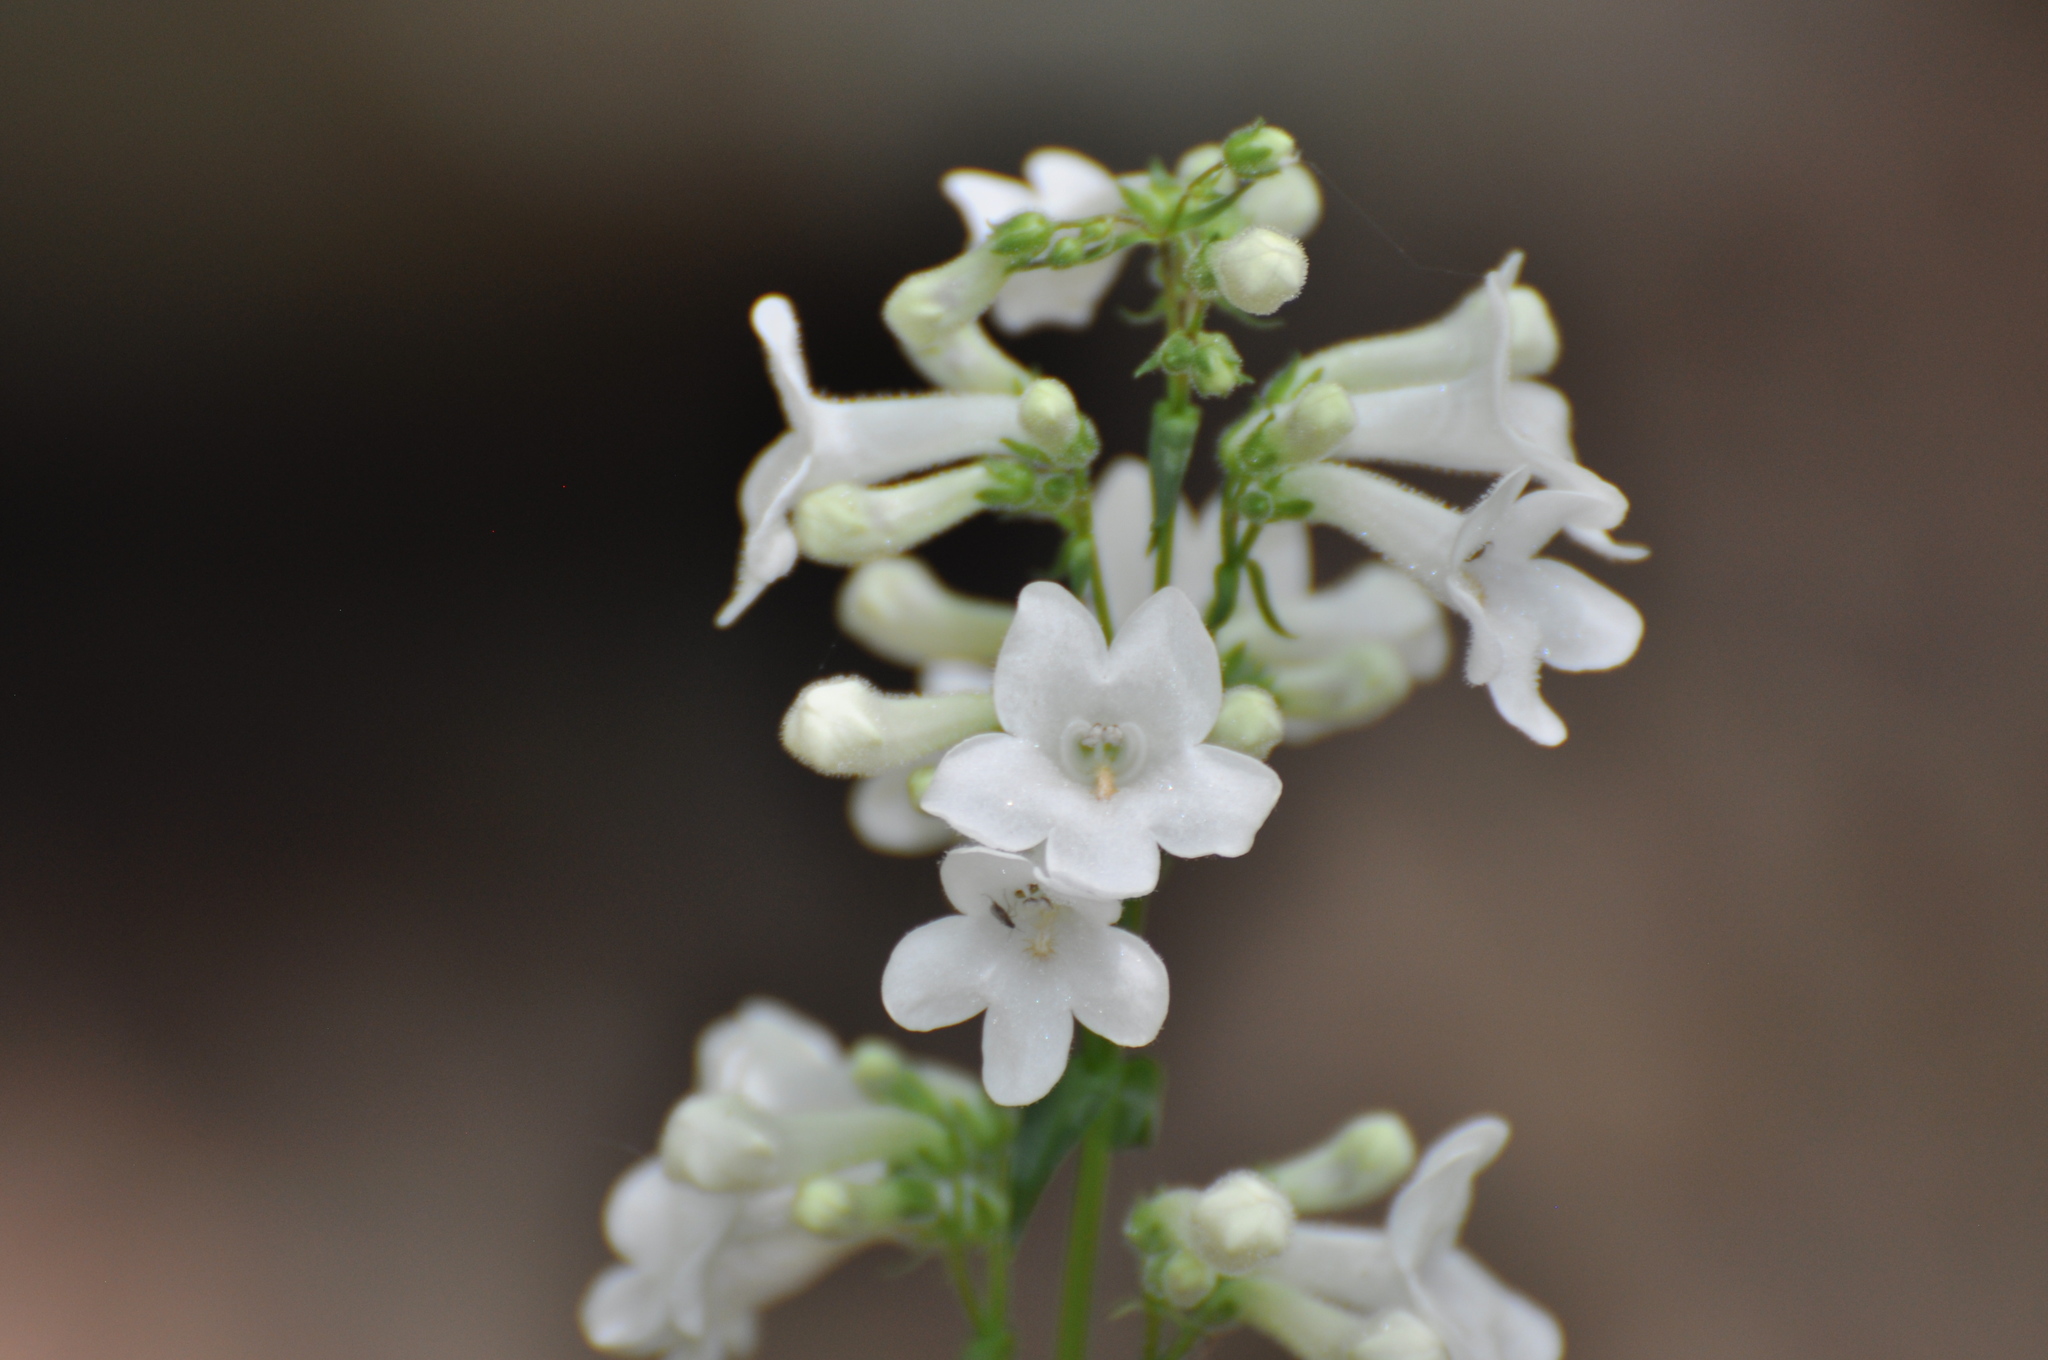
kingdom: Plantae
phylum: Tracheophyta
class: Magnoliopsida
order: Lamiales
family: Plantaginaceae
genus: Penstemon
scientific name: Penstemon tubaeflorus
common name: White wand beardtongue
